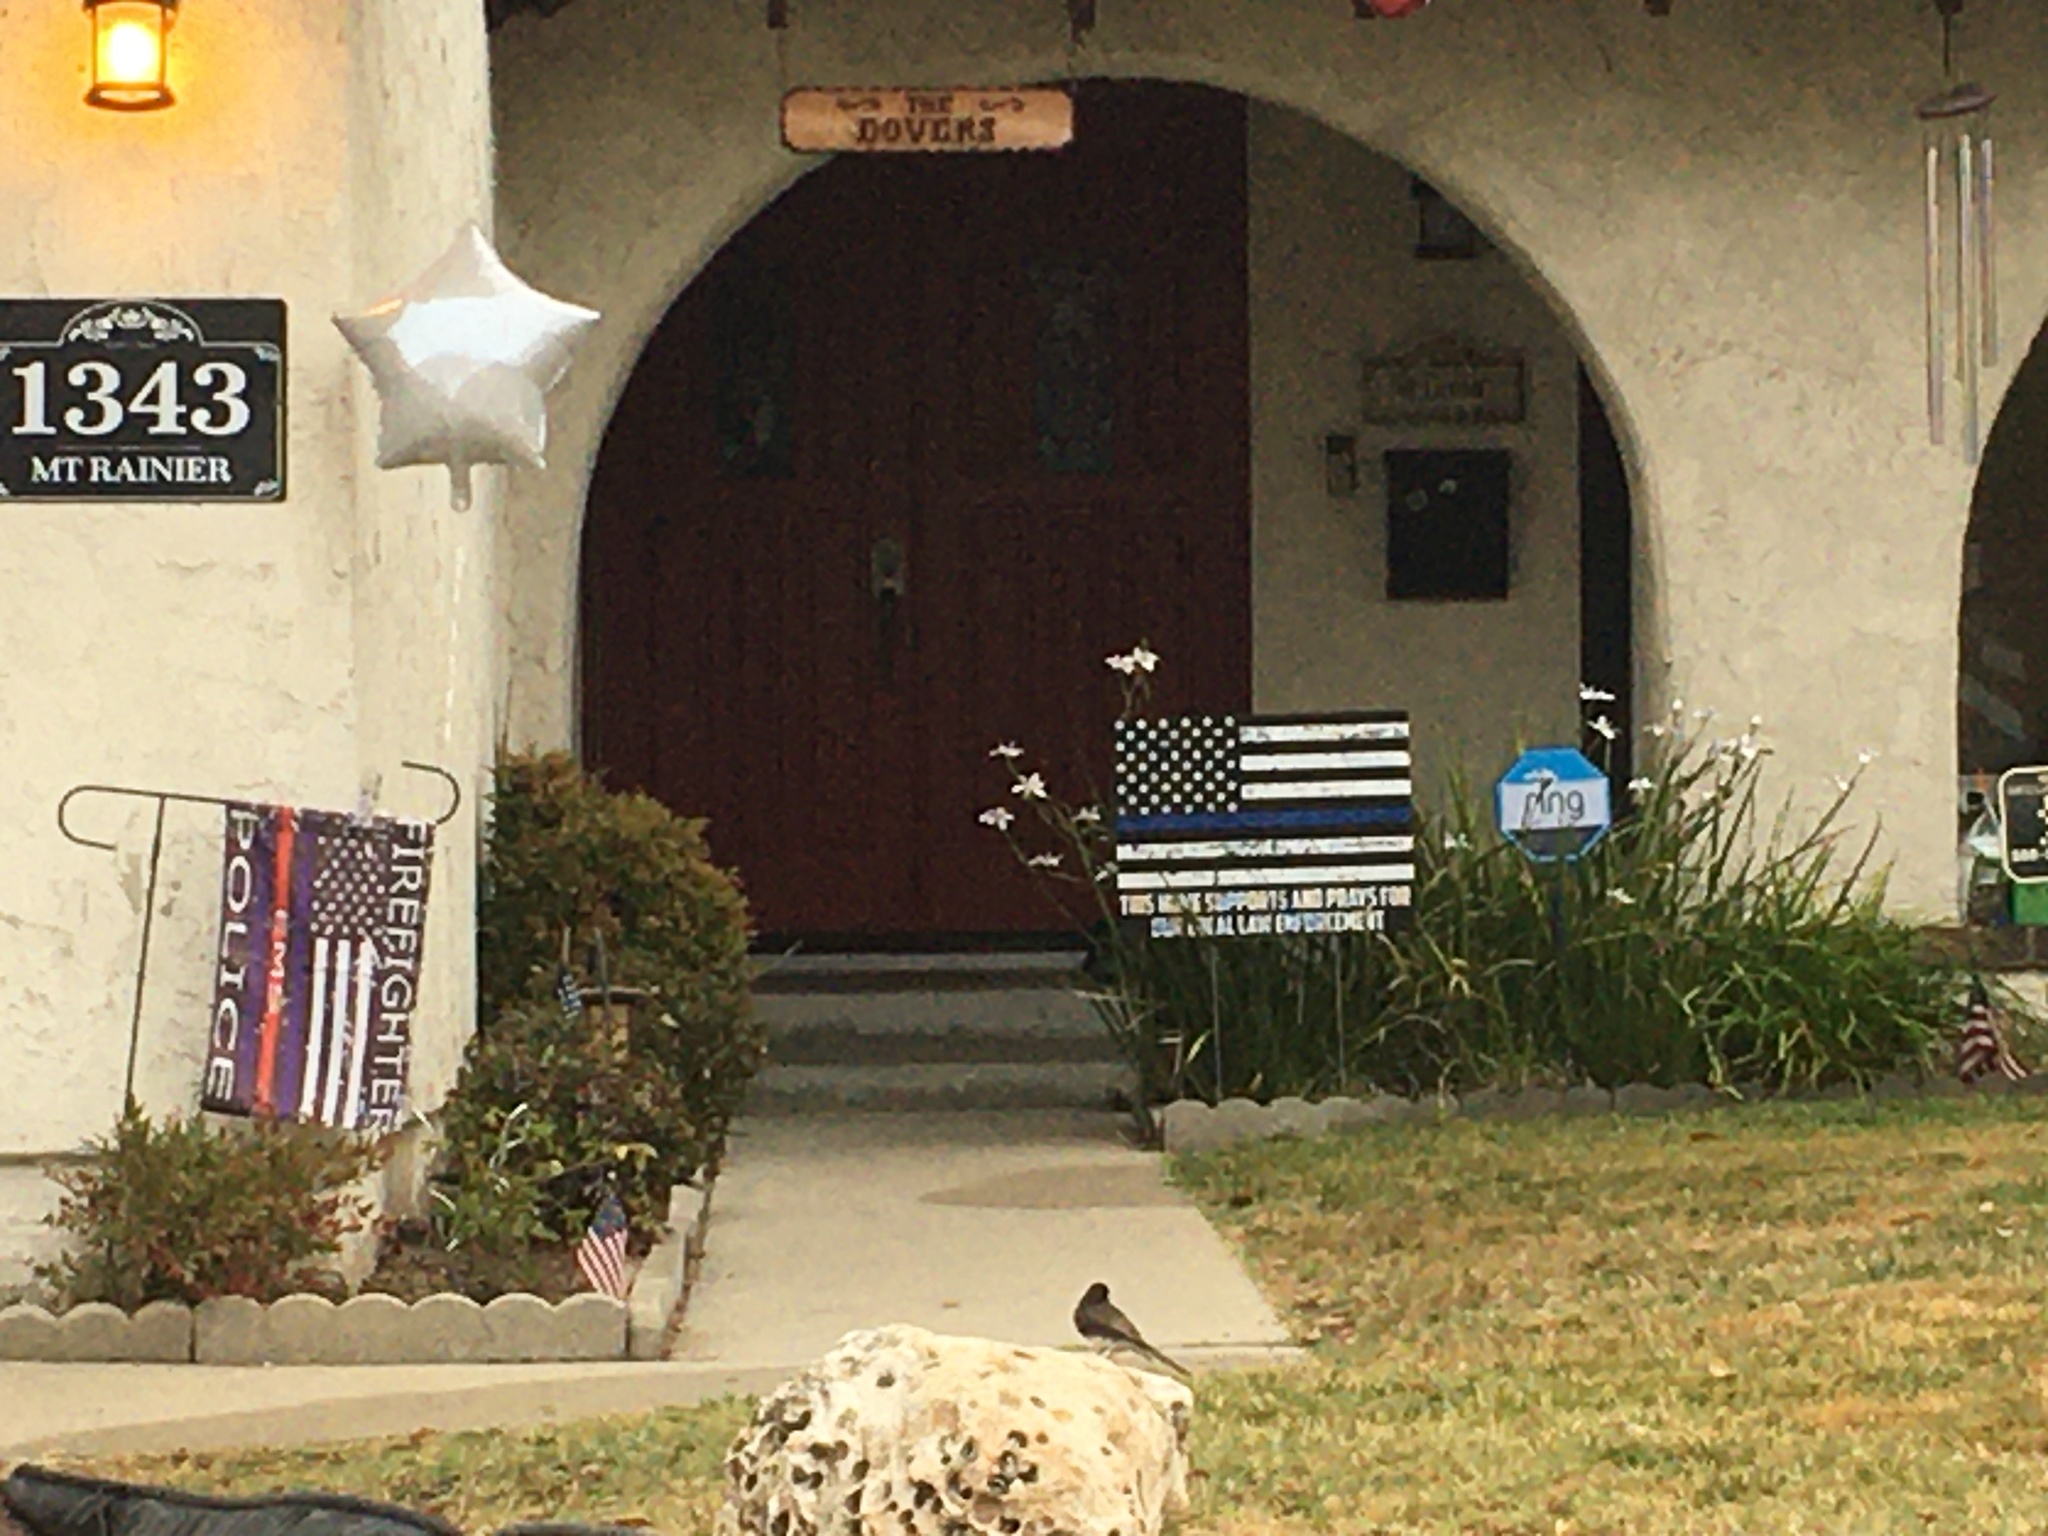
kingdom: Animalia
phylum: Chordata
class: Aves
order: Passeriformes
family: Tyrannidae
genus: Sayornis
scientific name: Sayornis nigricans
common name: Black phoebe
